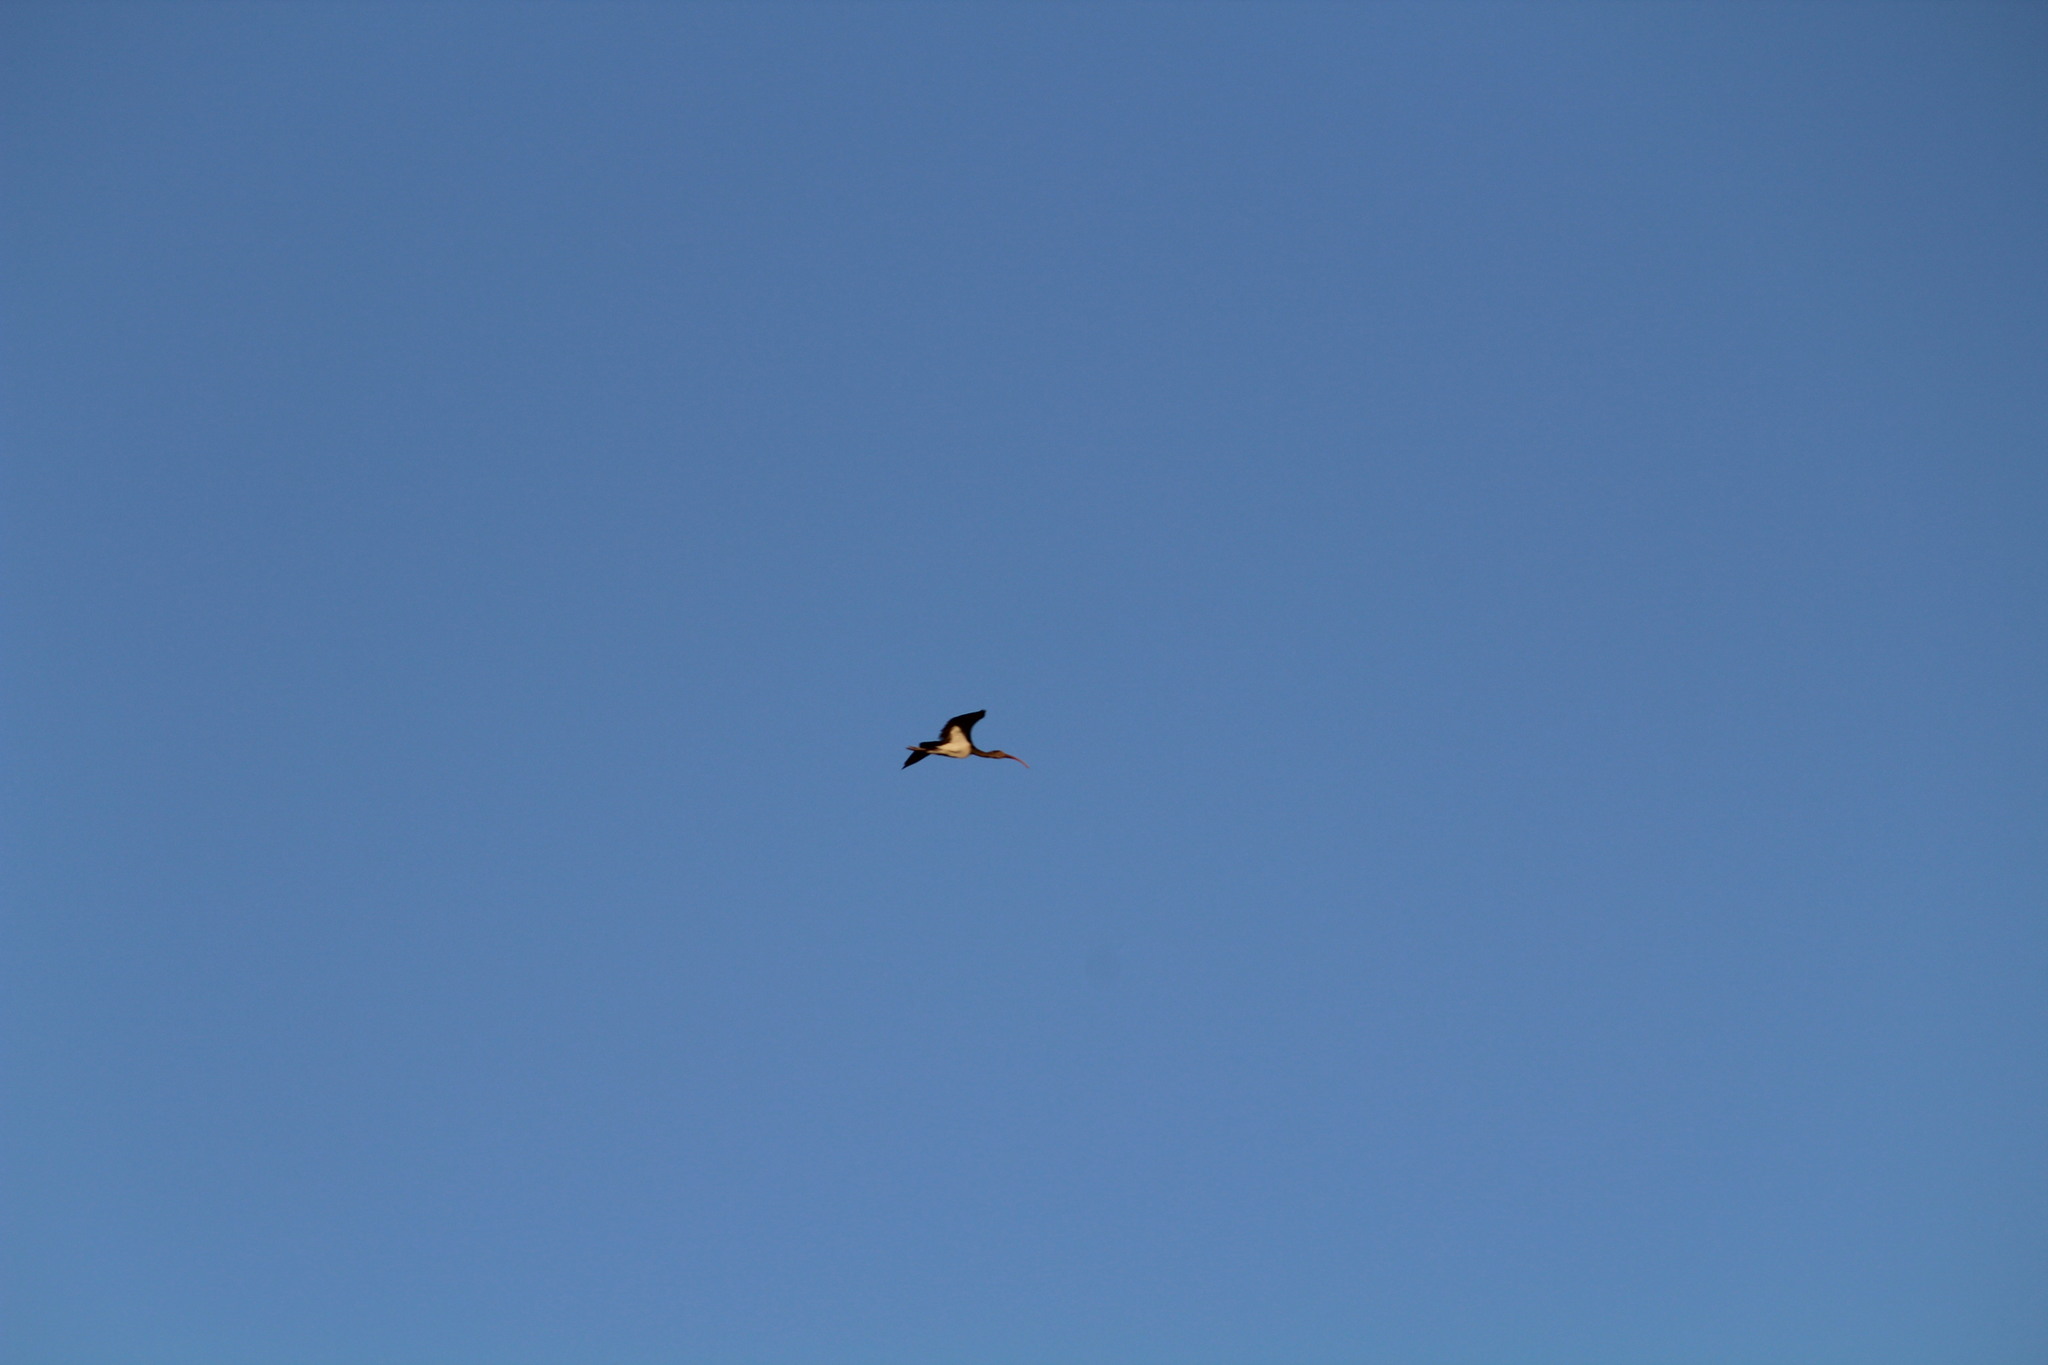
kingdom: Animalia
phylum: Chordata
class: Aves
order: Pelecaniformes
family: Threskiornithidae
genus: Eudocimus
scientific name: Eudocimus albus
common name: White ibis
